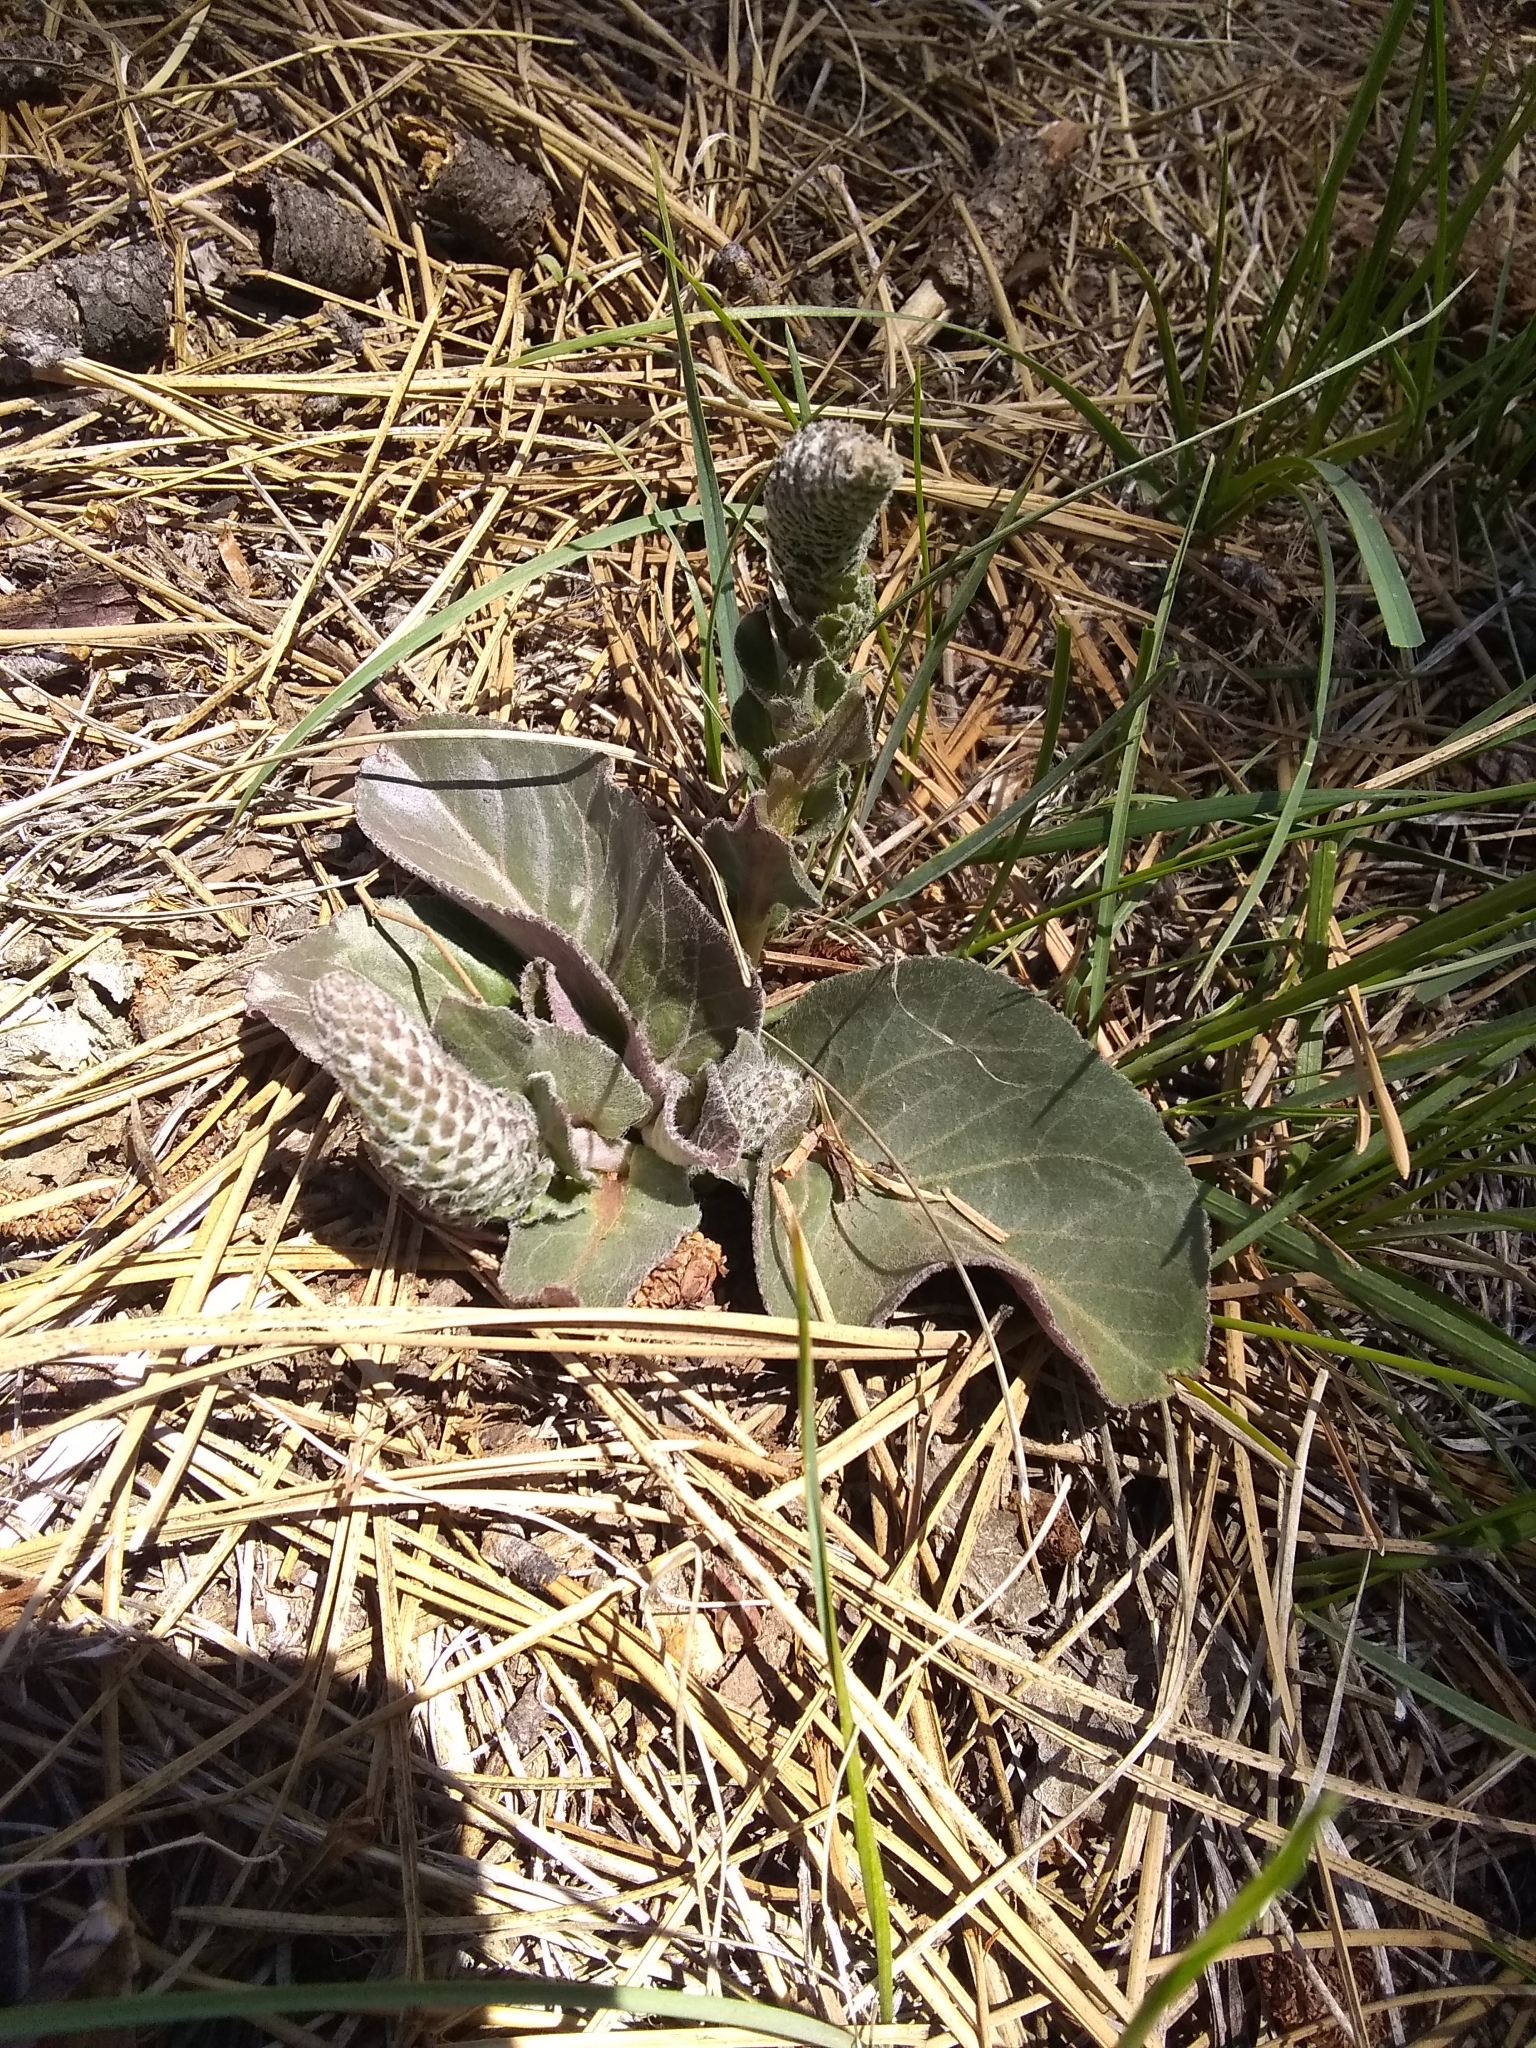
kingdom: Plantae
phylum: Tracheophyta
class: Magnoliopsida
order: Lamiales
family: Plantaginaceae
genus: Veronica
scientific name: Veronica plantaginea
